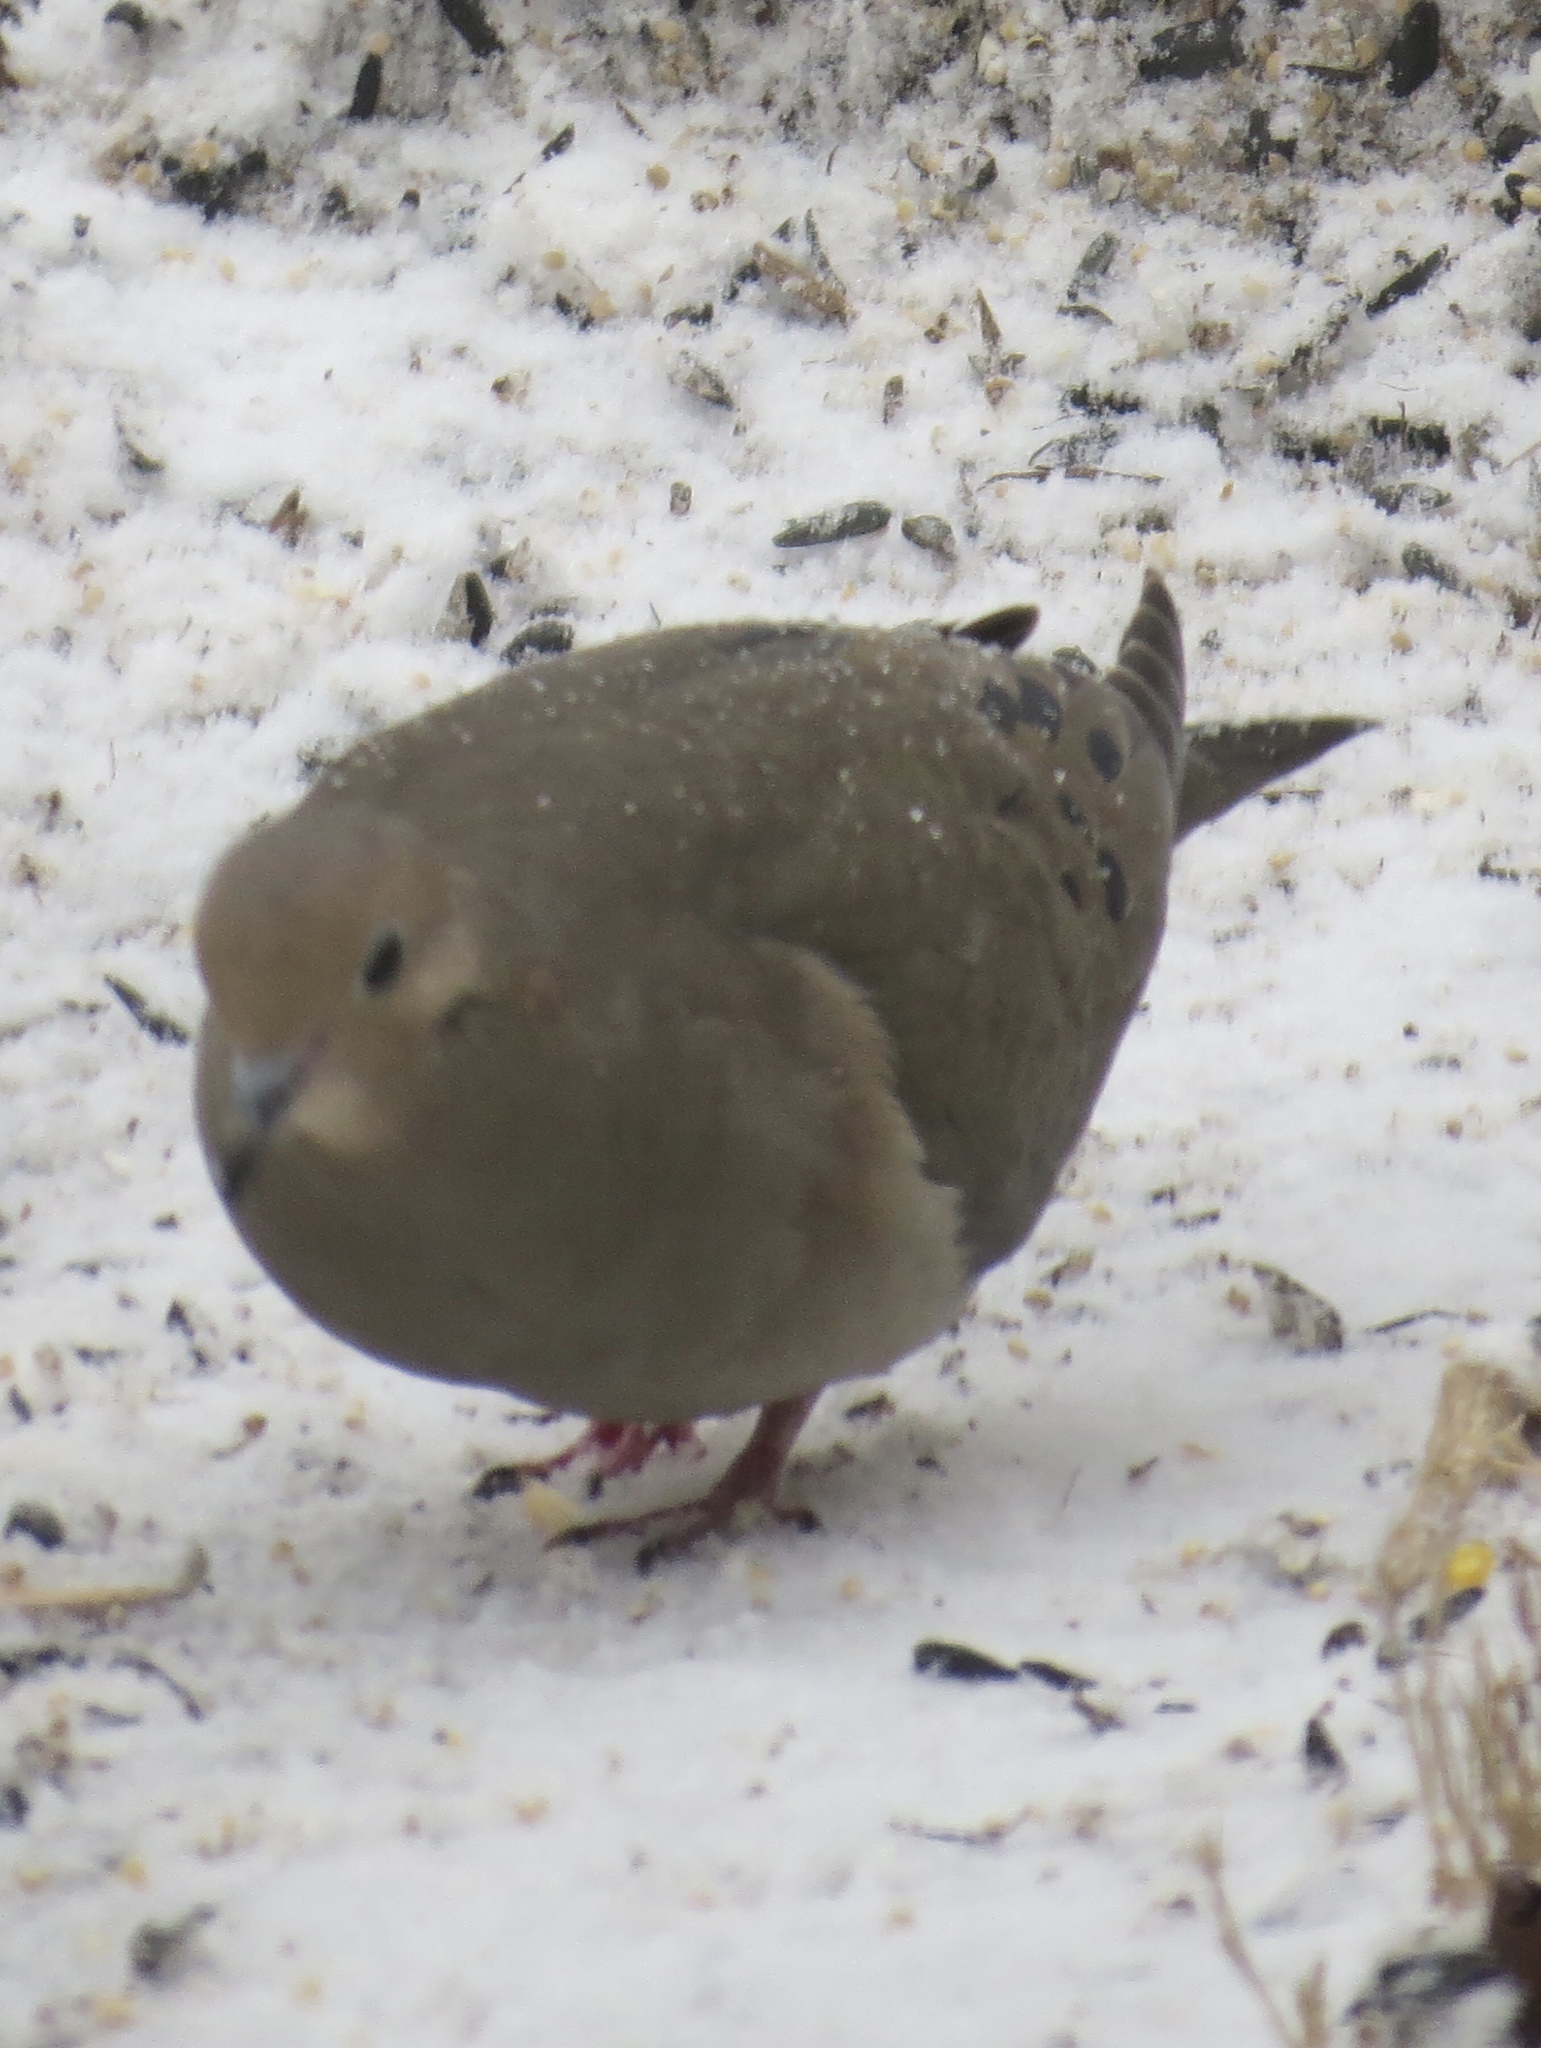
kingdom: Animalia
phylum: Chordata
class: Aves
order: Columbiformes
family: Columbidae
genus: Zenaida
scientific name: Zenaida macroura
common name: Mourning dove
